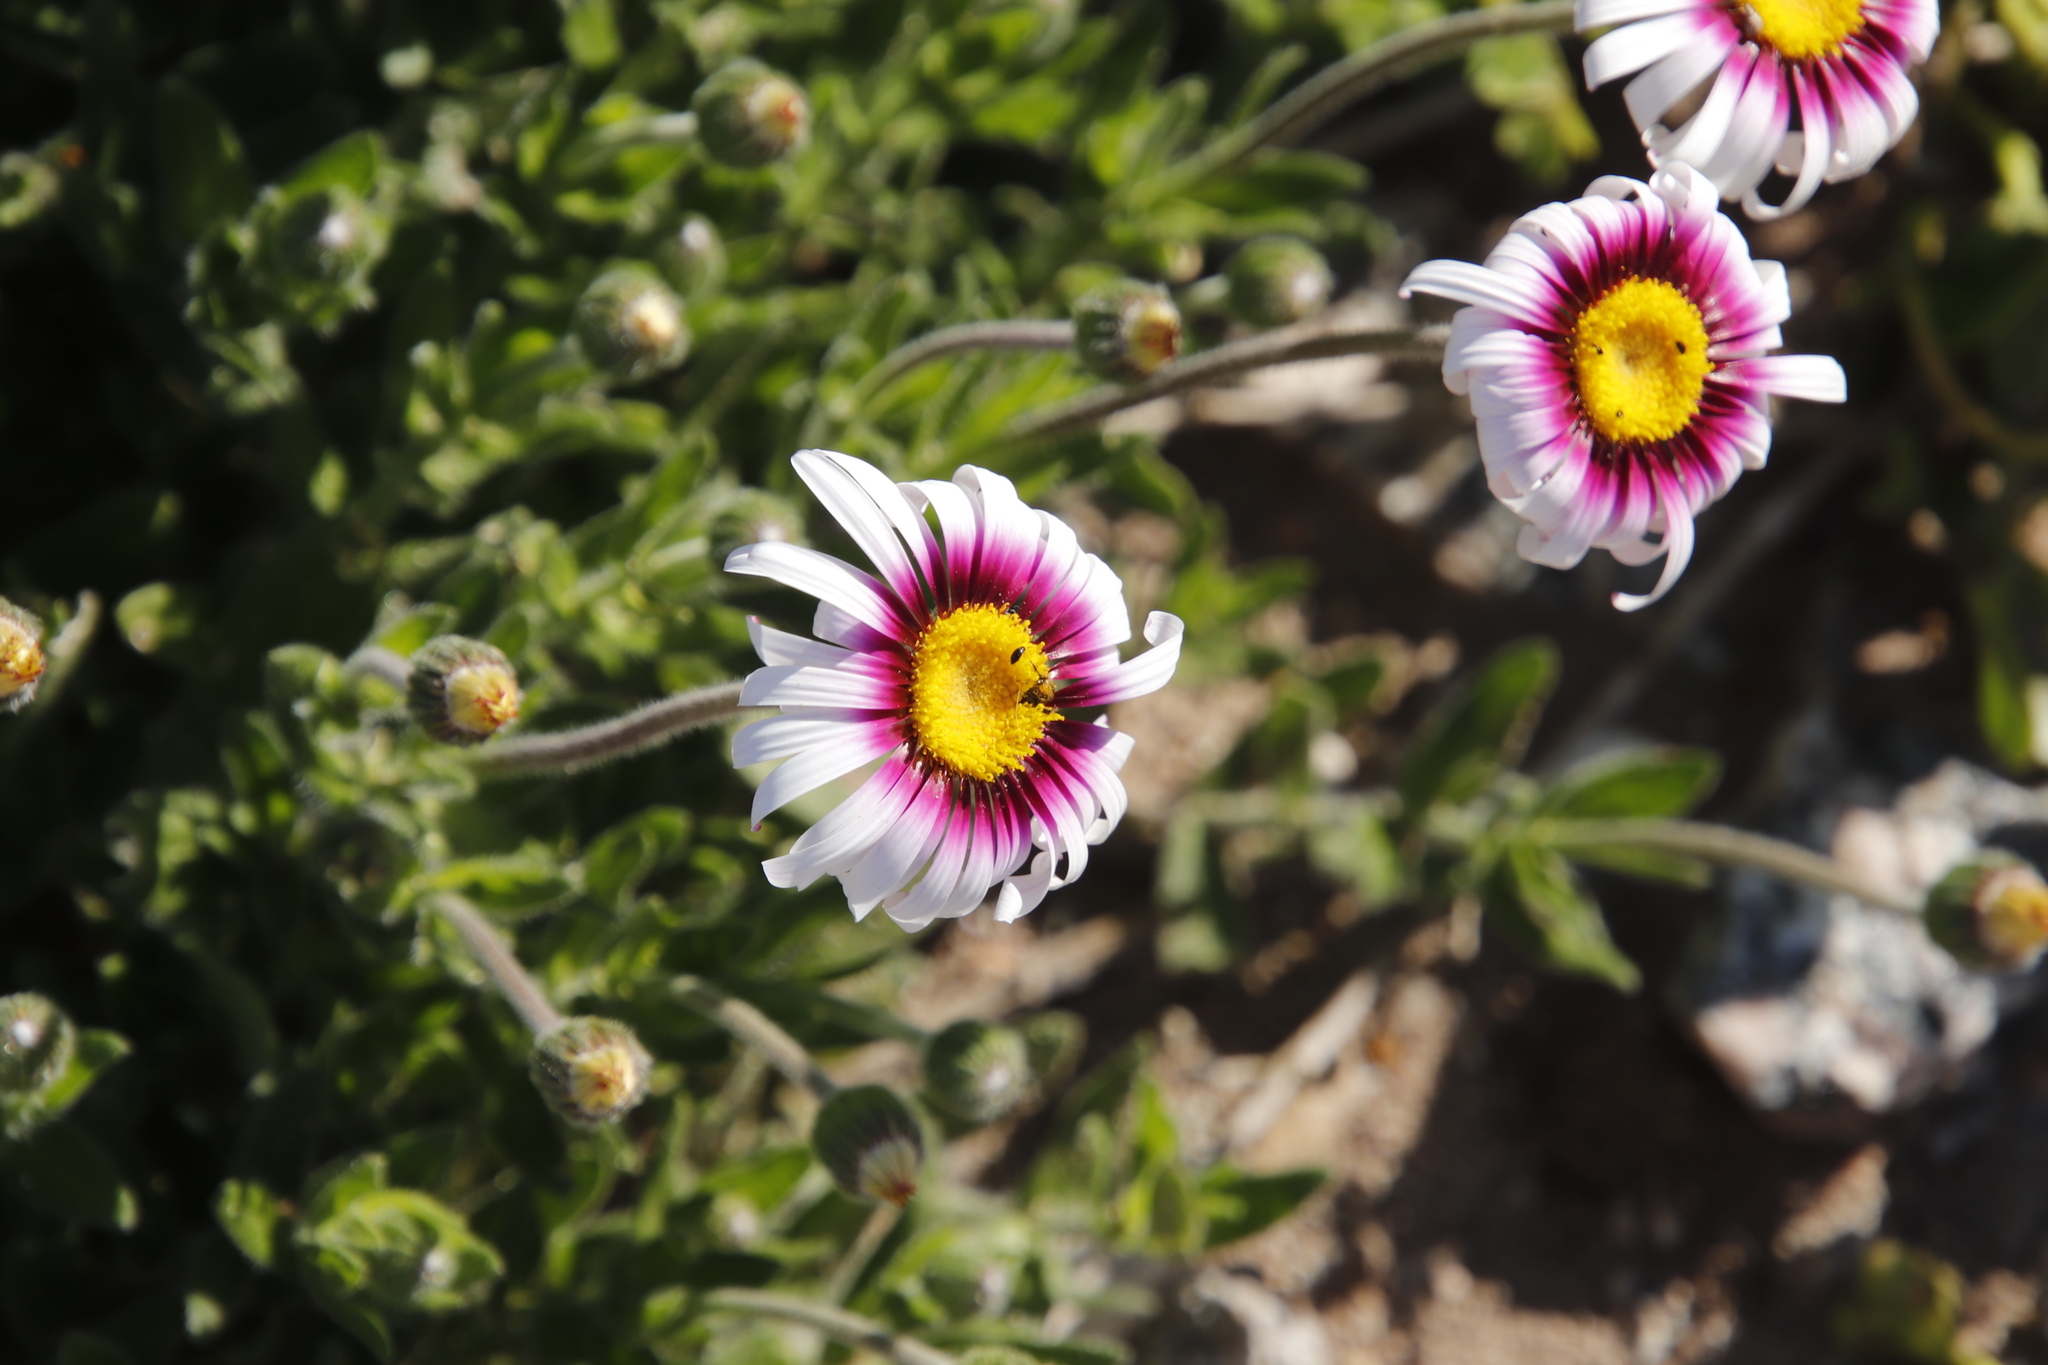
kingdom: Plantae
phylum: Tracheophyta
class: Magnoliopsida
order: Asterales
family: Asteraceae
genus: Felicia
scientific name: Felicia elongata
